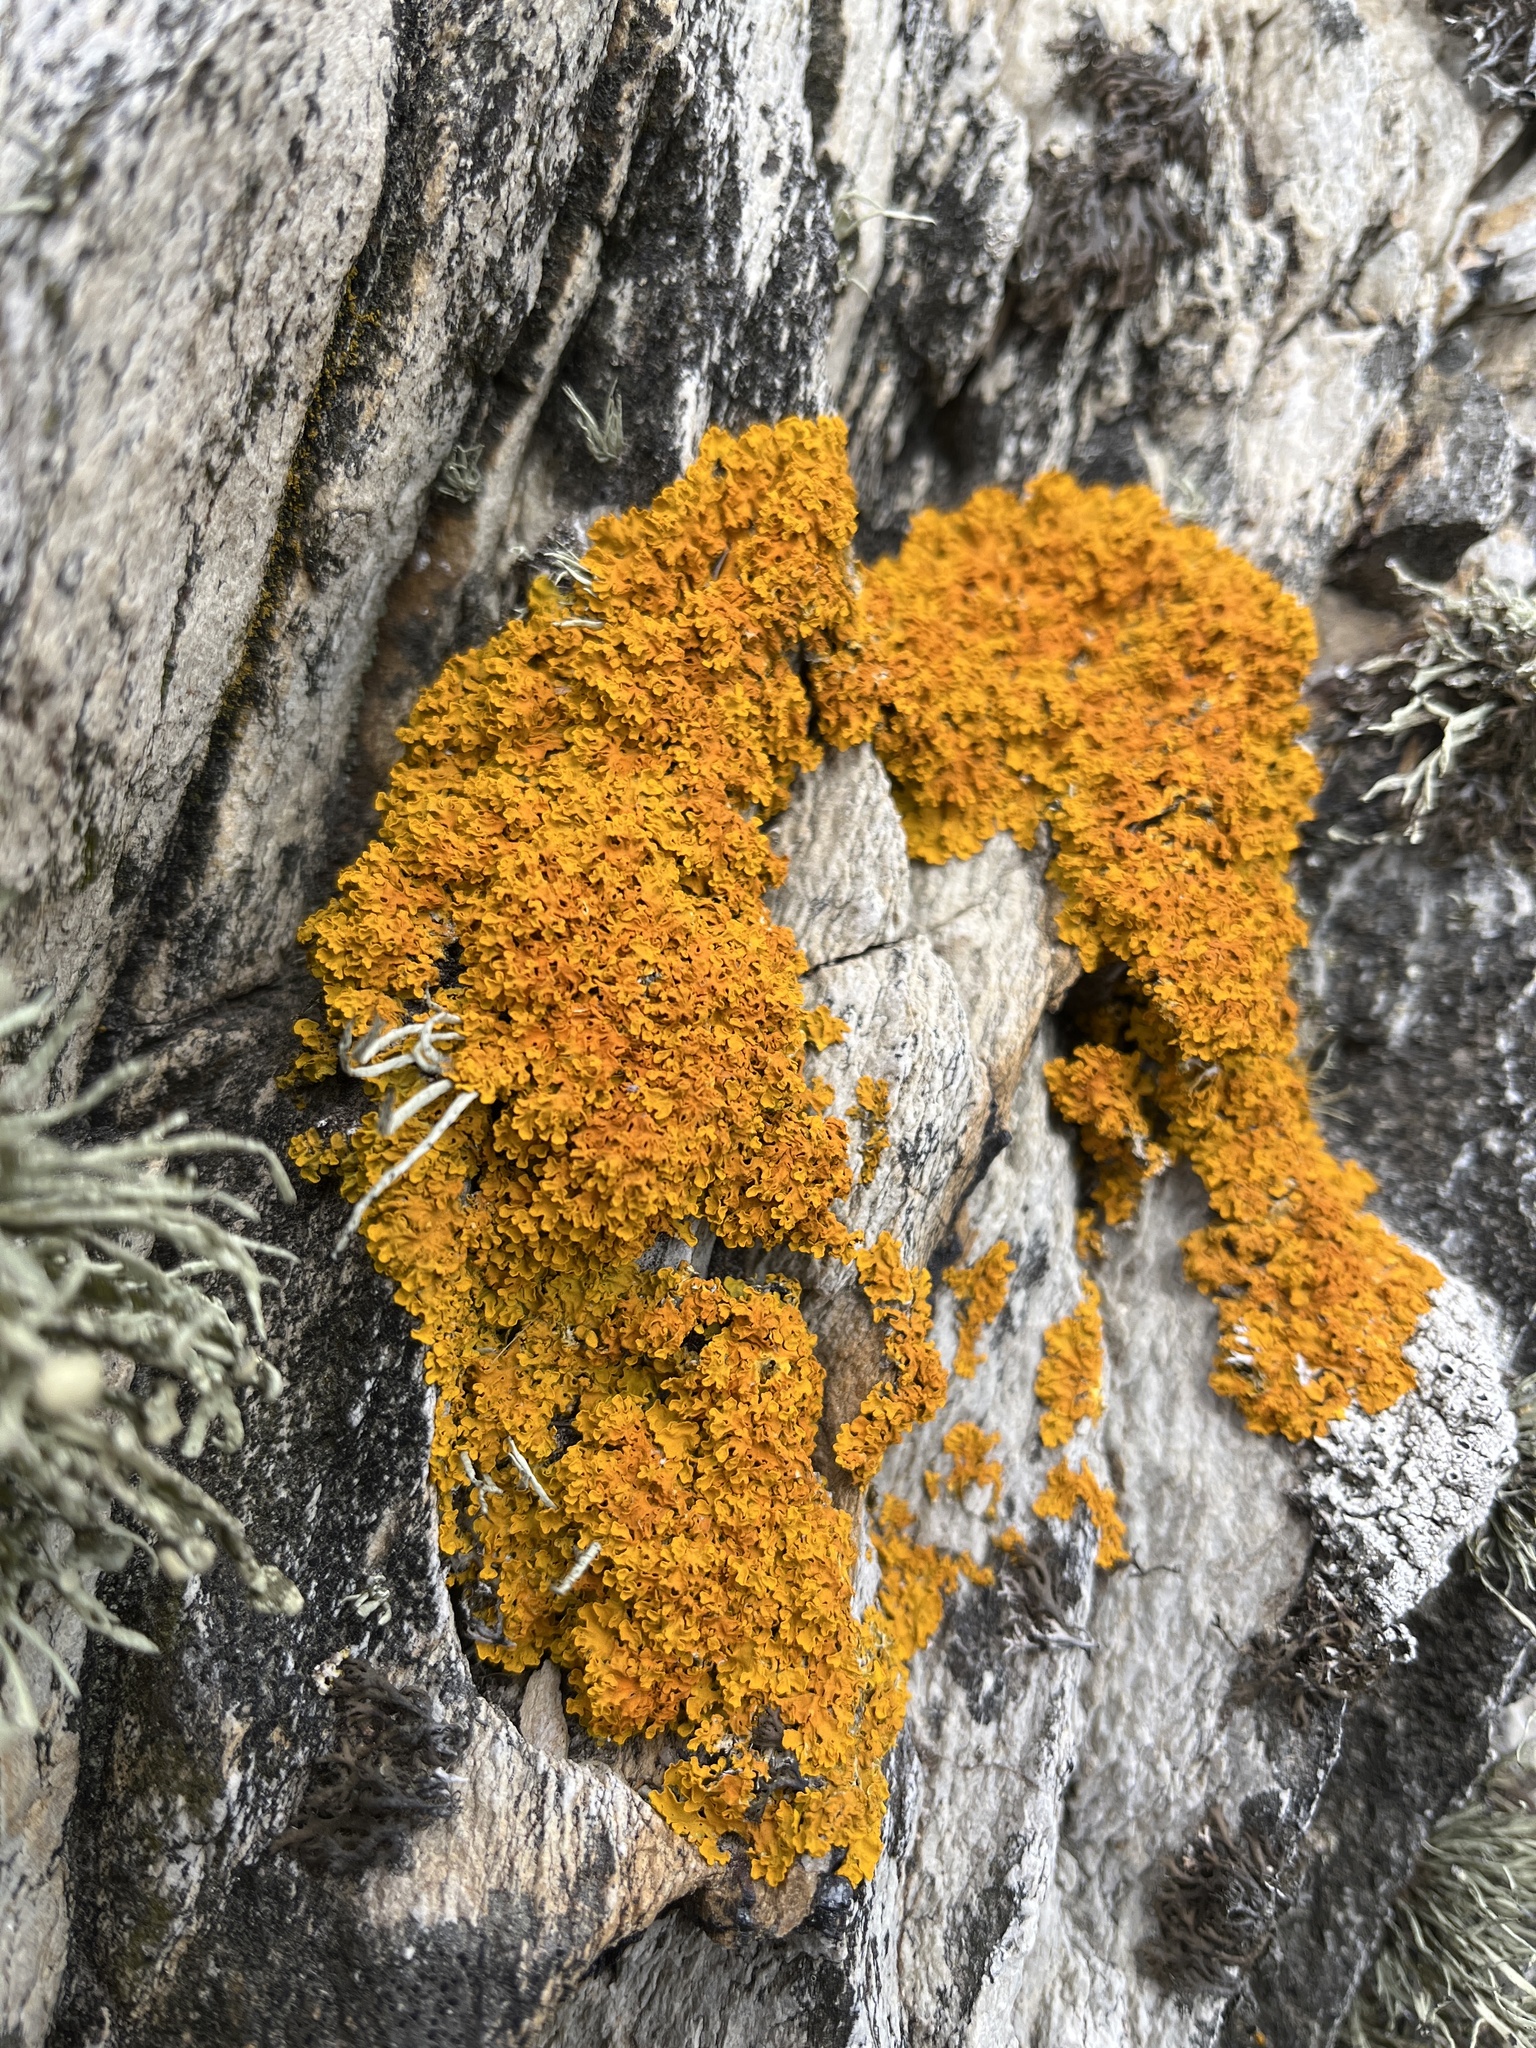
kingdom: Fungi
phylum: Ascomycota
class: Lecanoromycetes
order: Teloschistales
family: Teloschistaceae
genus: Xanthoria
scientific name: Xanthoria aureola
